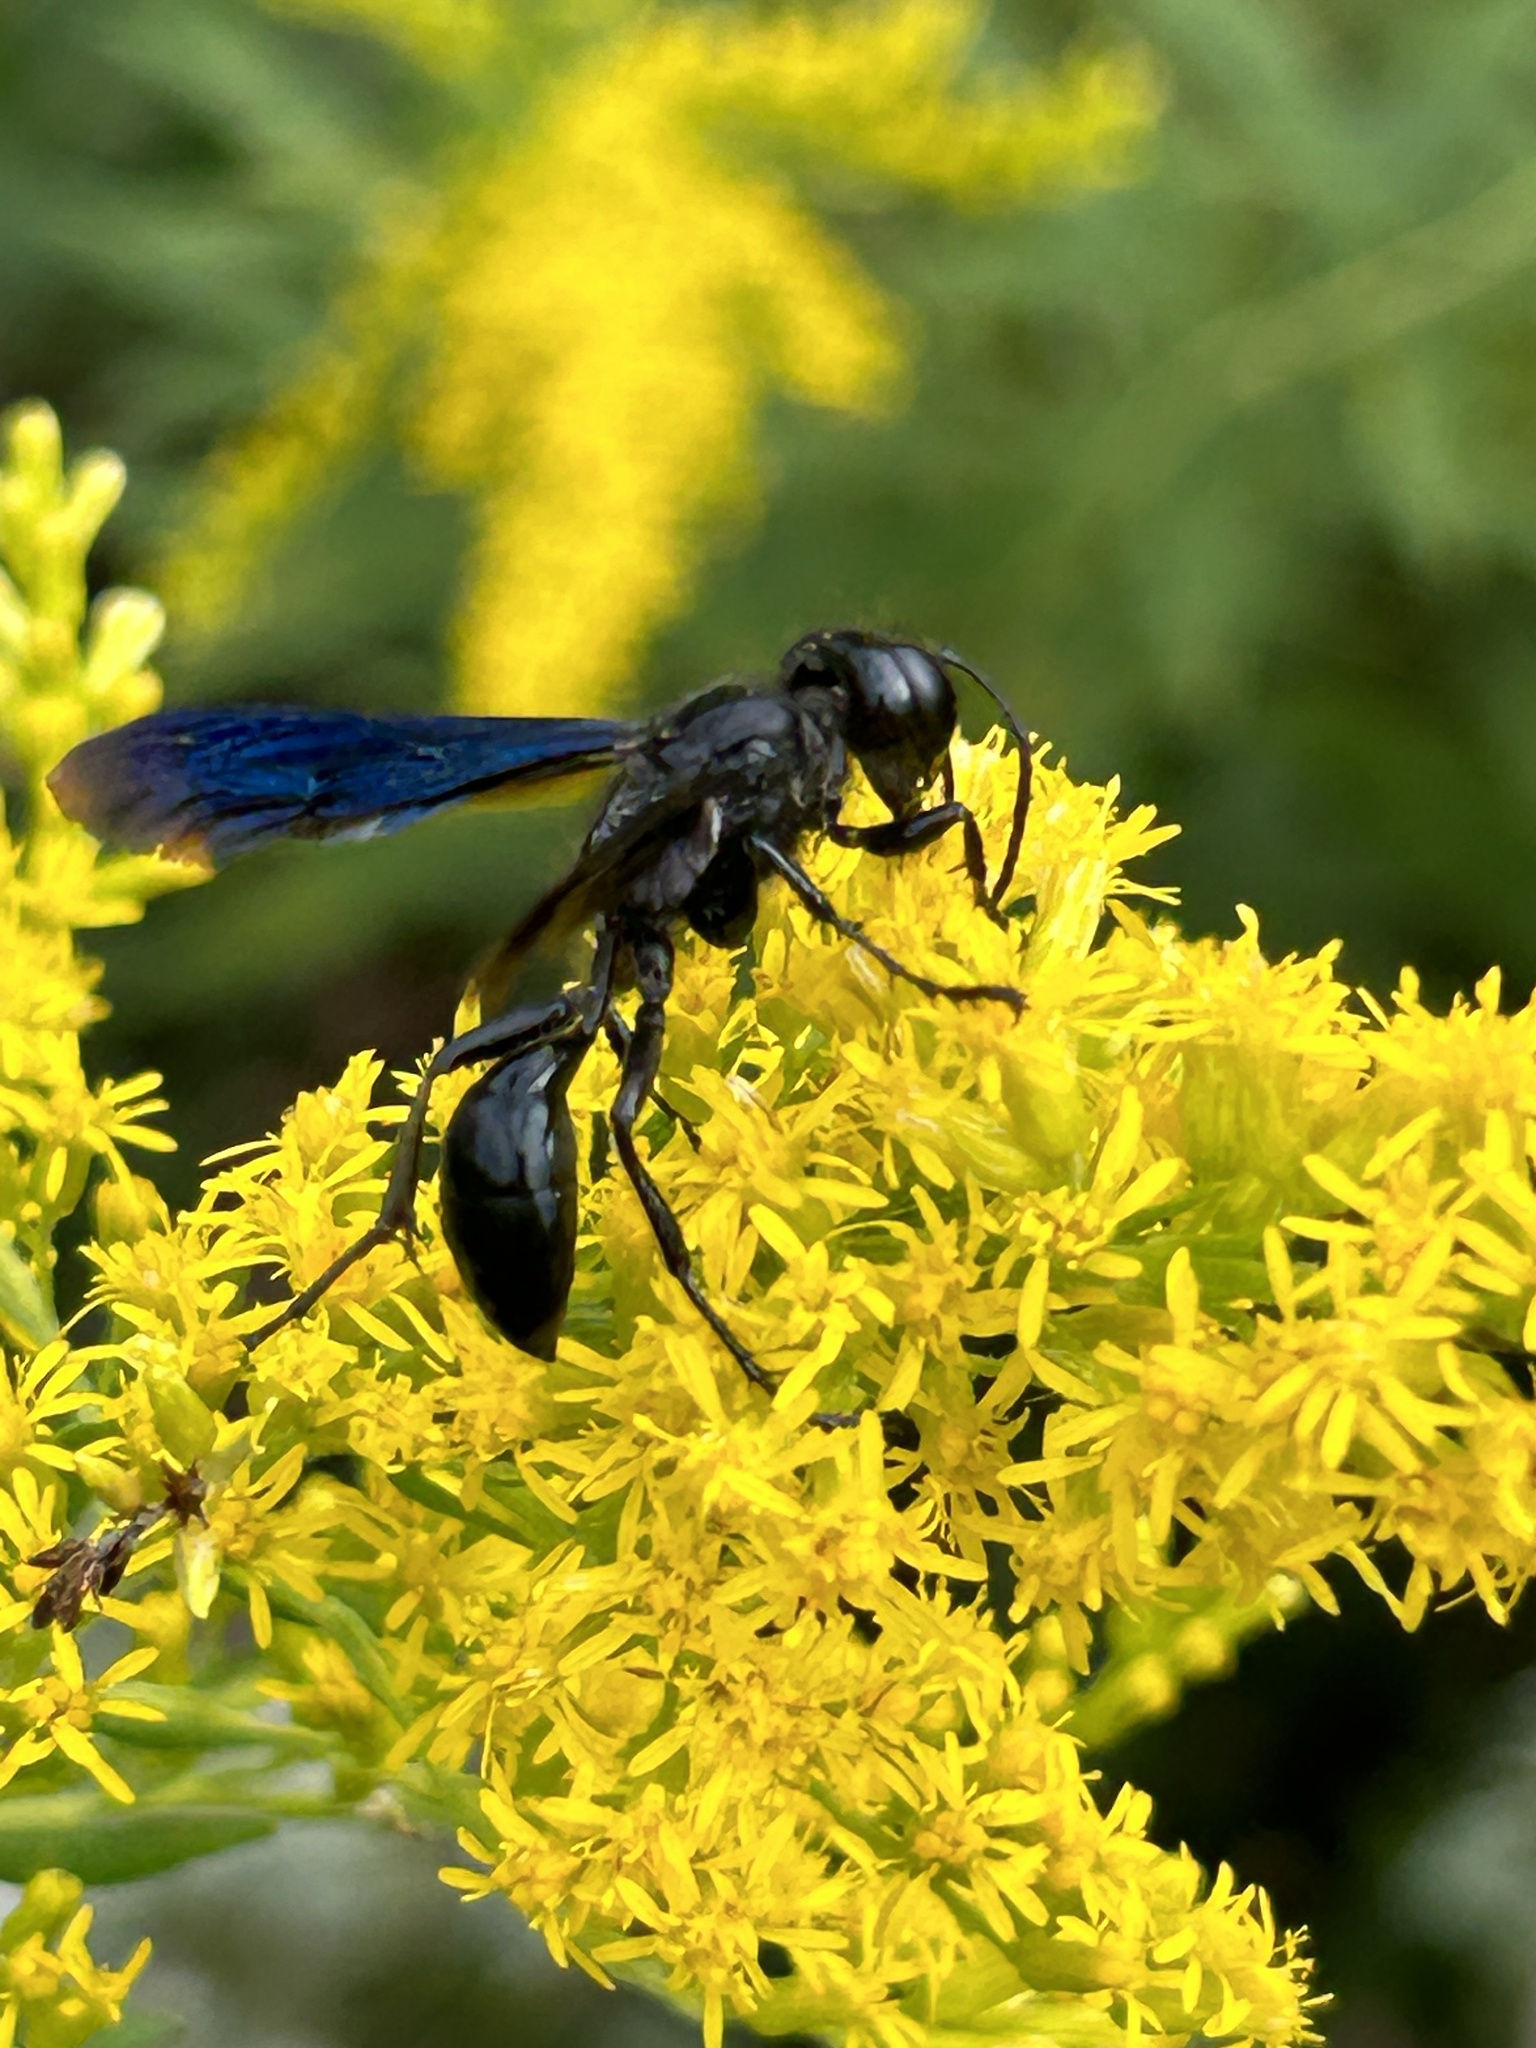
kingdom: Animalia
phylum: Arthropoda
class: Insecta
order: Hymenoptera
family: Sphecidae
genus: Isodontia
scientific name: Isodontia philadelphica
